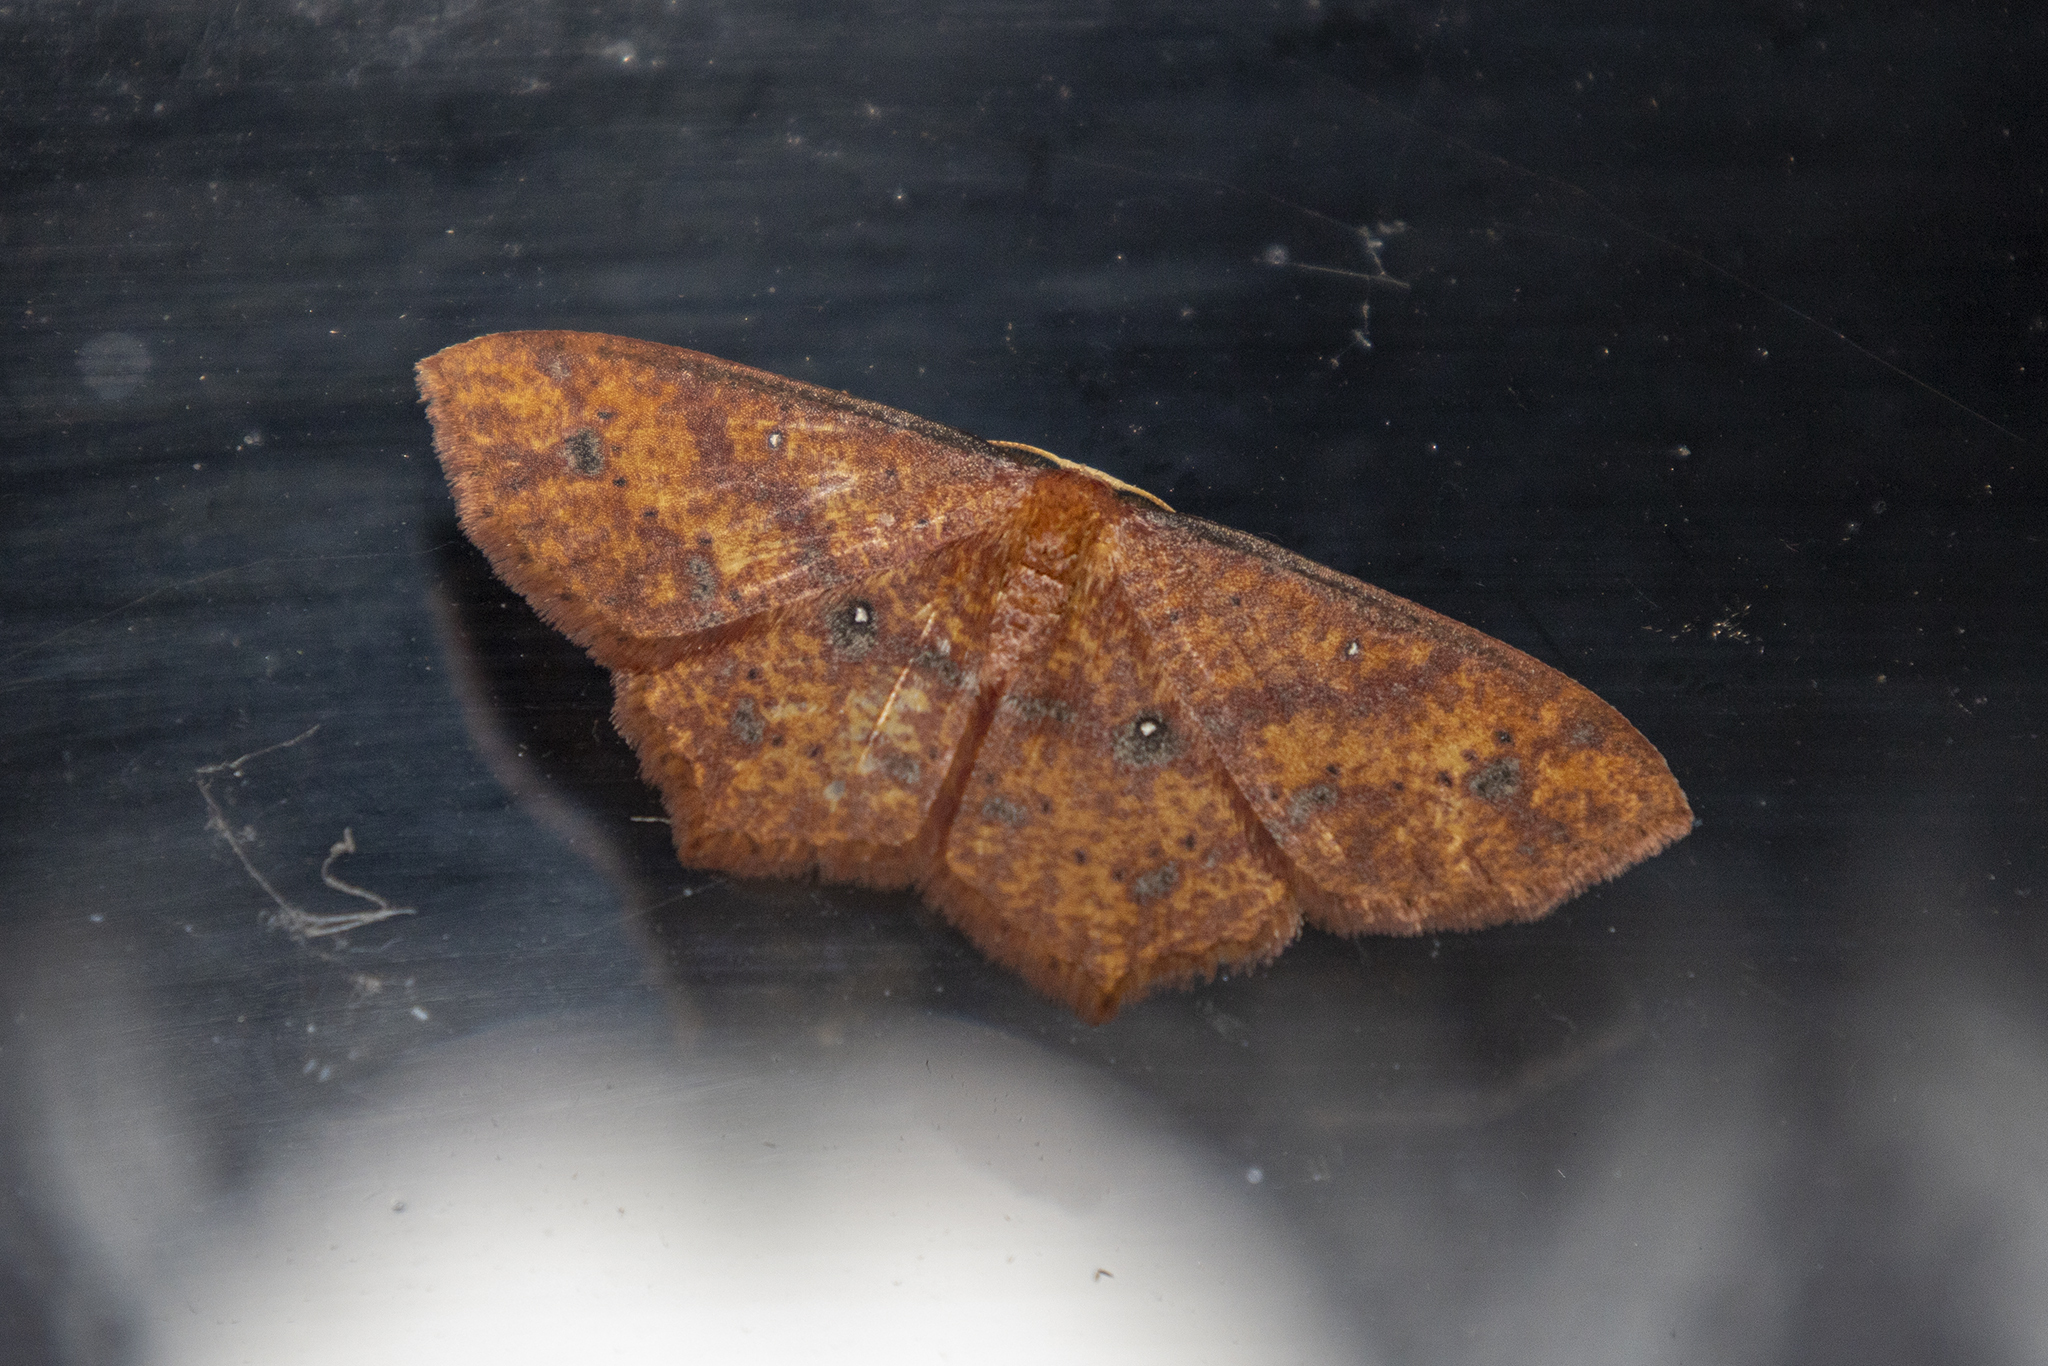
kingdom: Animalia
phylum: Arthropoda
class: Insecta
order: Lepidoptera
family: Geometridae
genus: Synegiodes
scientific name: Synegiodes hyriaria
